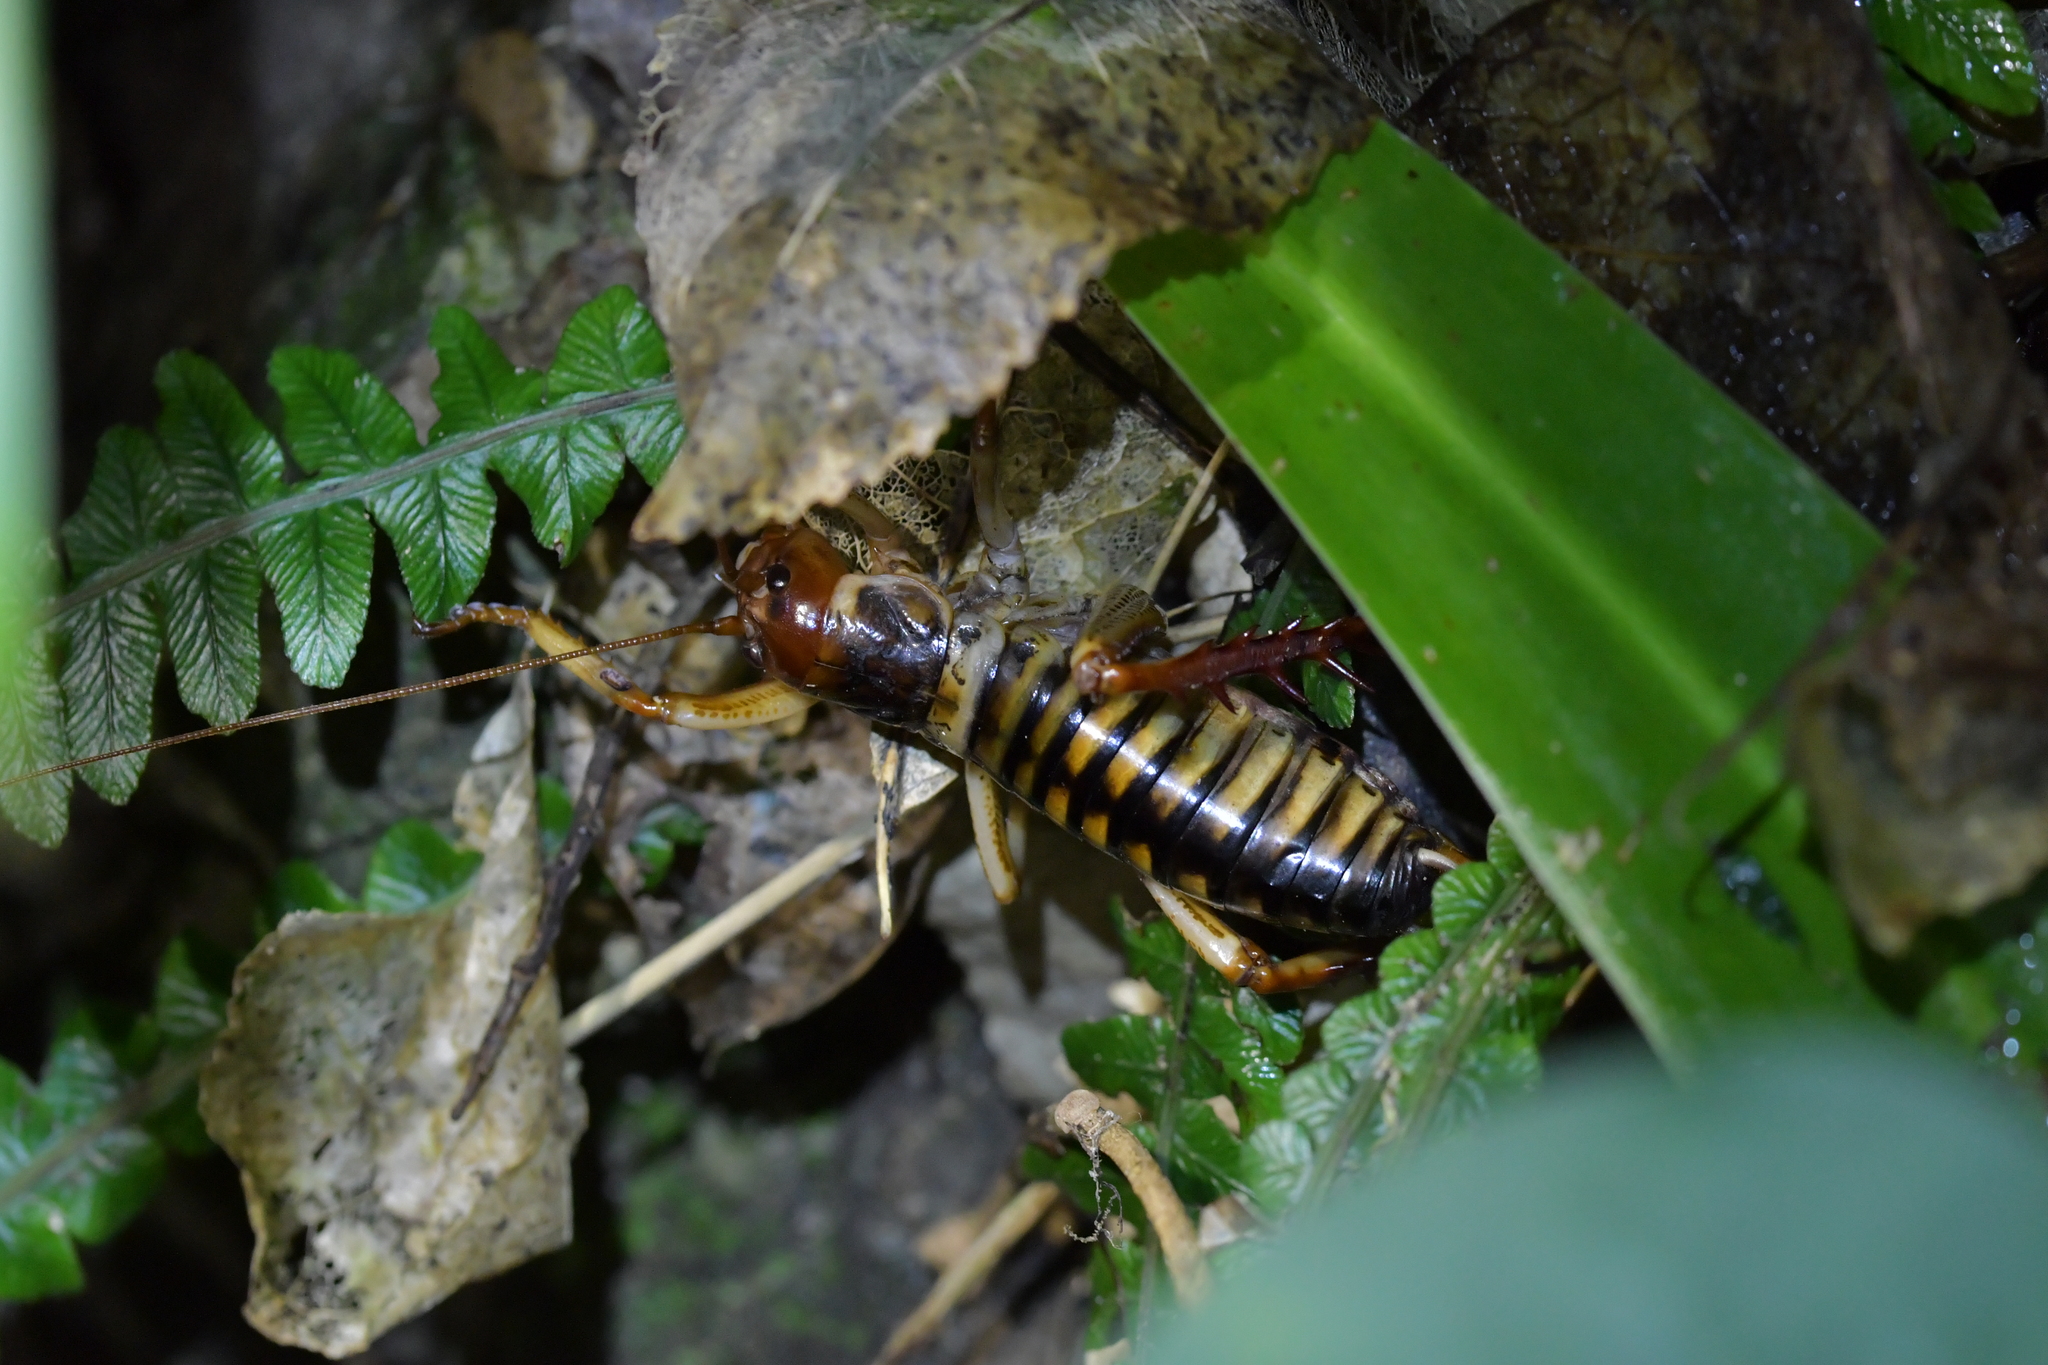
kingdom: Animalia
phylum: Arthropoda
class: Insecta
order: Orthoptera
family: Anostostomatidae
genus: Hemideina
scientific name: Hemideina crassidens
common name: Wellington tree weta
